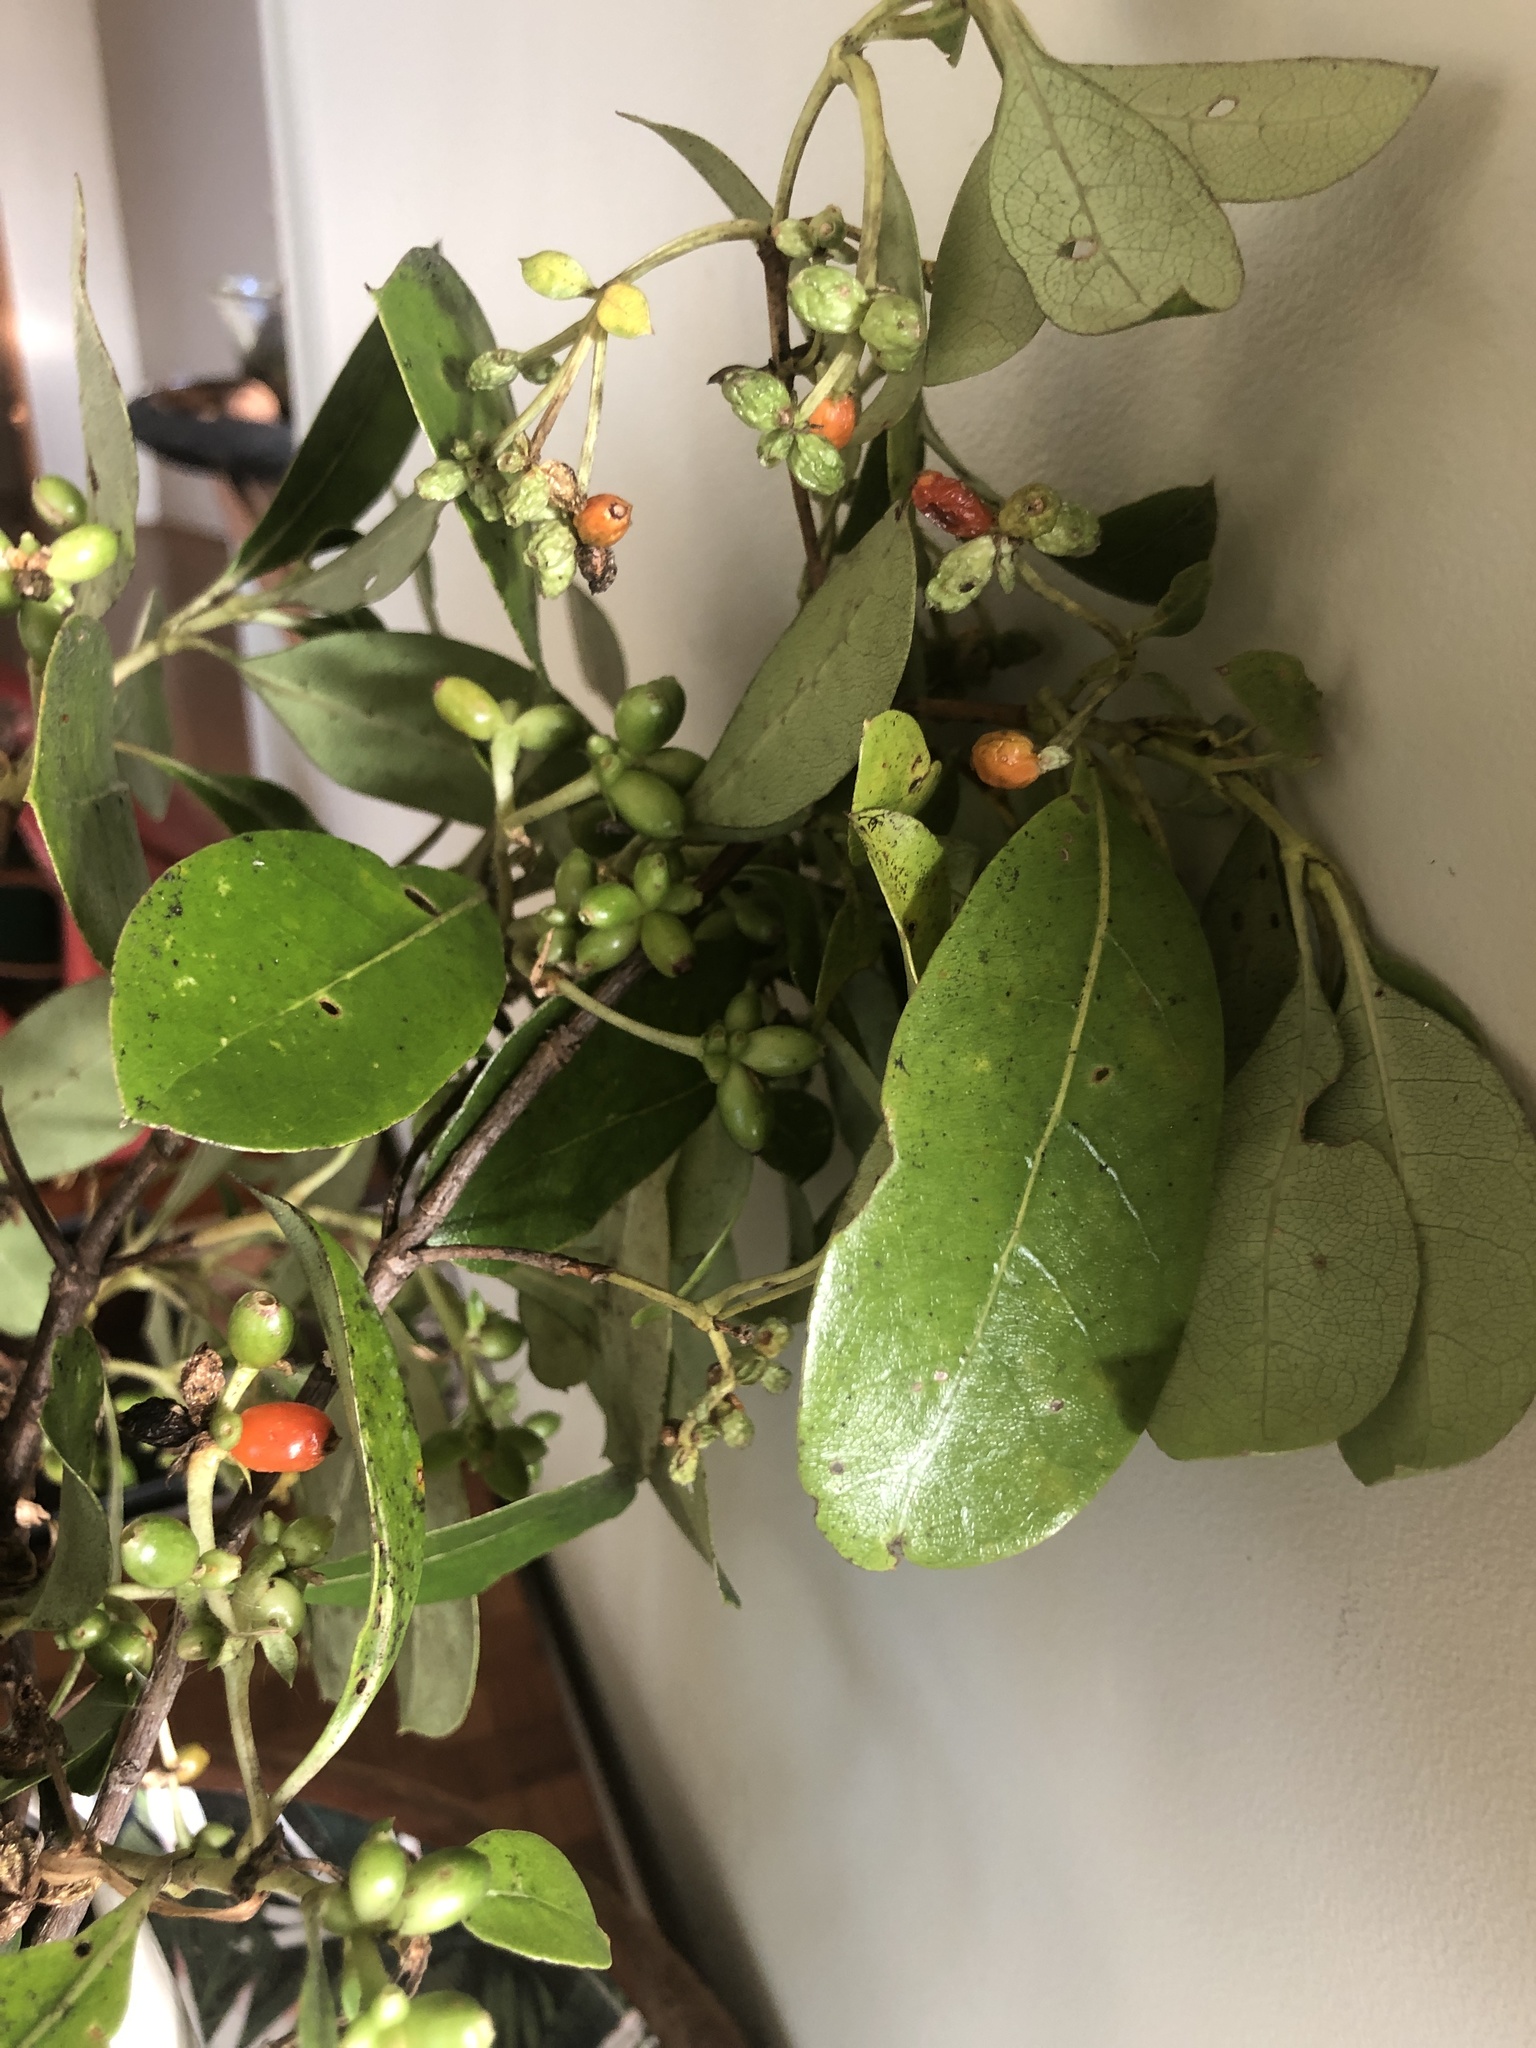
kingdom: Plantae
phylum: Tracheophyta
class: Magnoliopsida
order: Gentianales
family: Rubiaceae
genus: Coprosma
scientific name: Coprosma lucida
